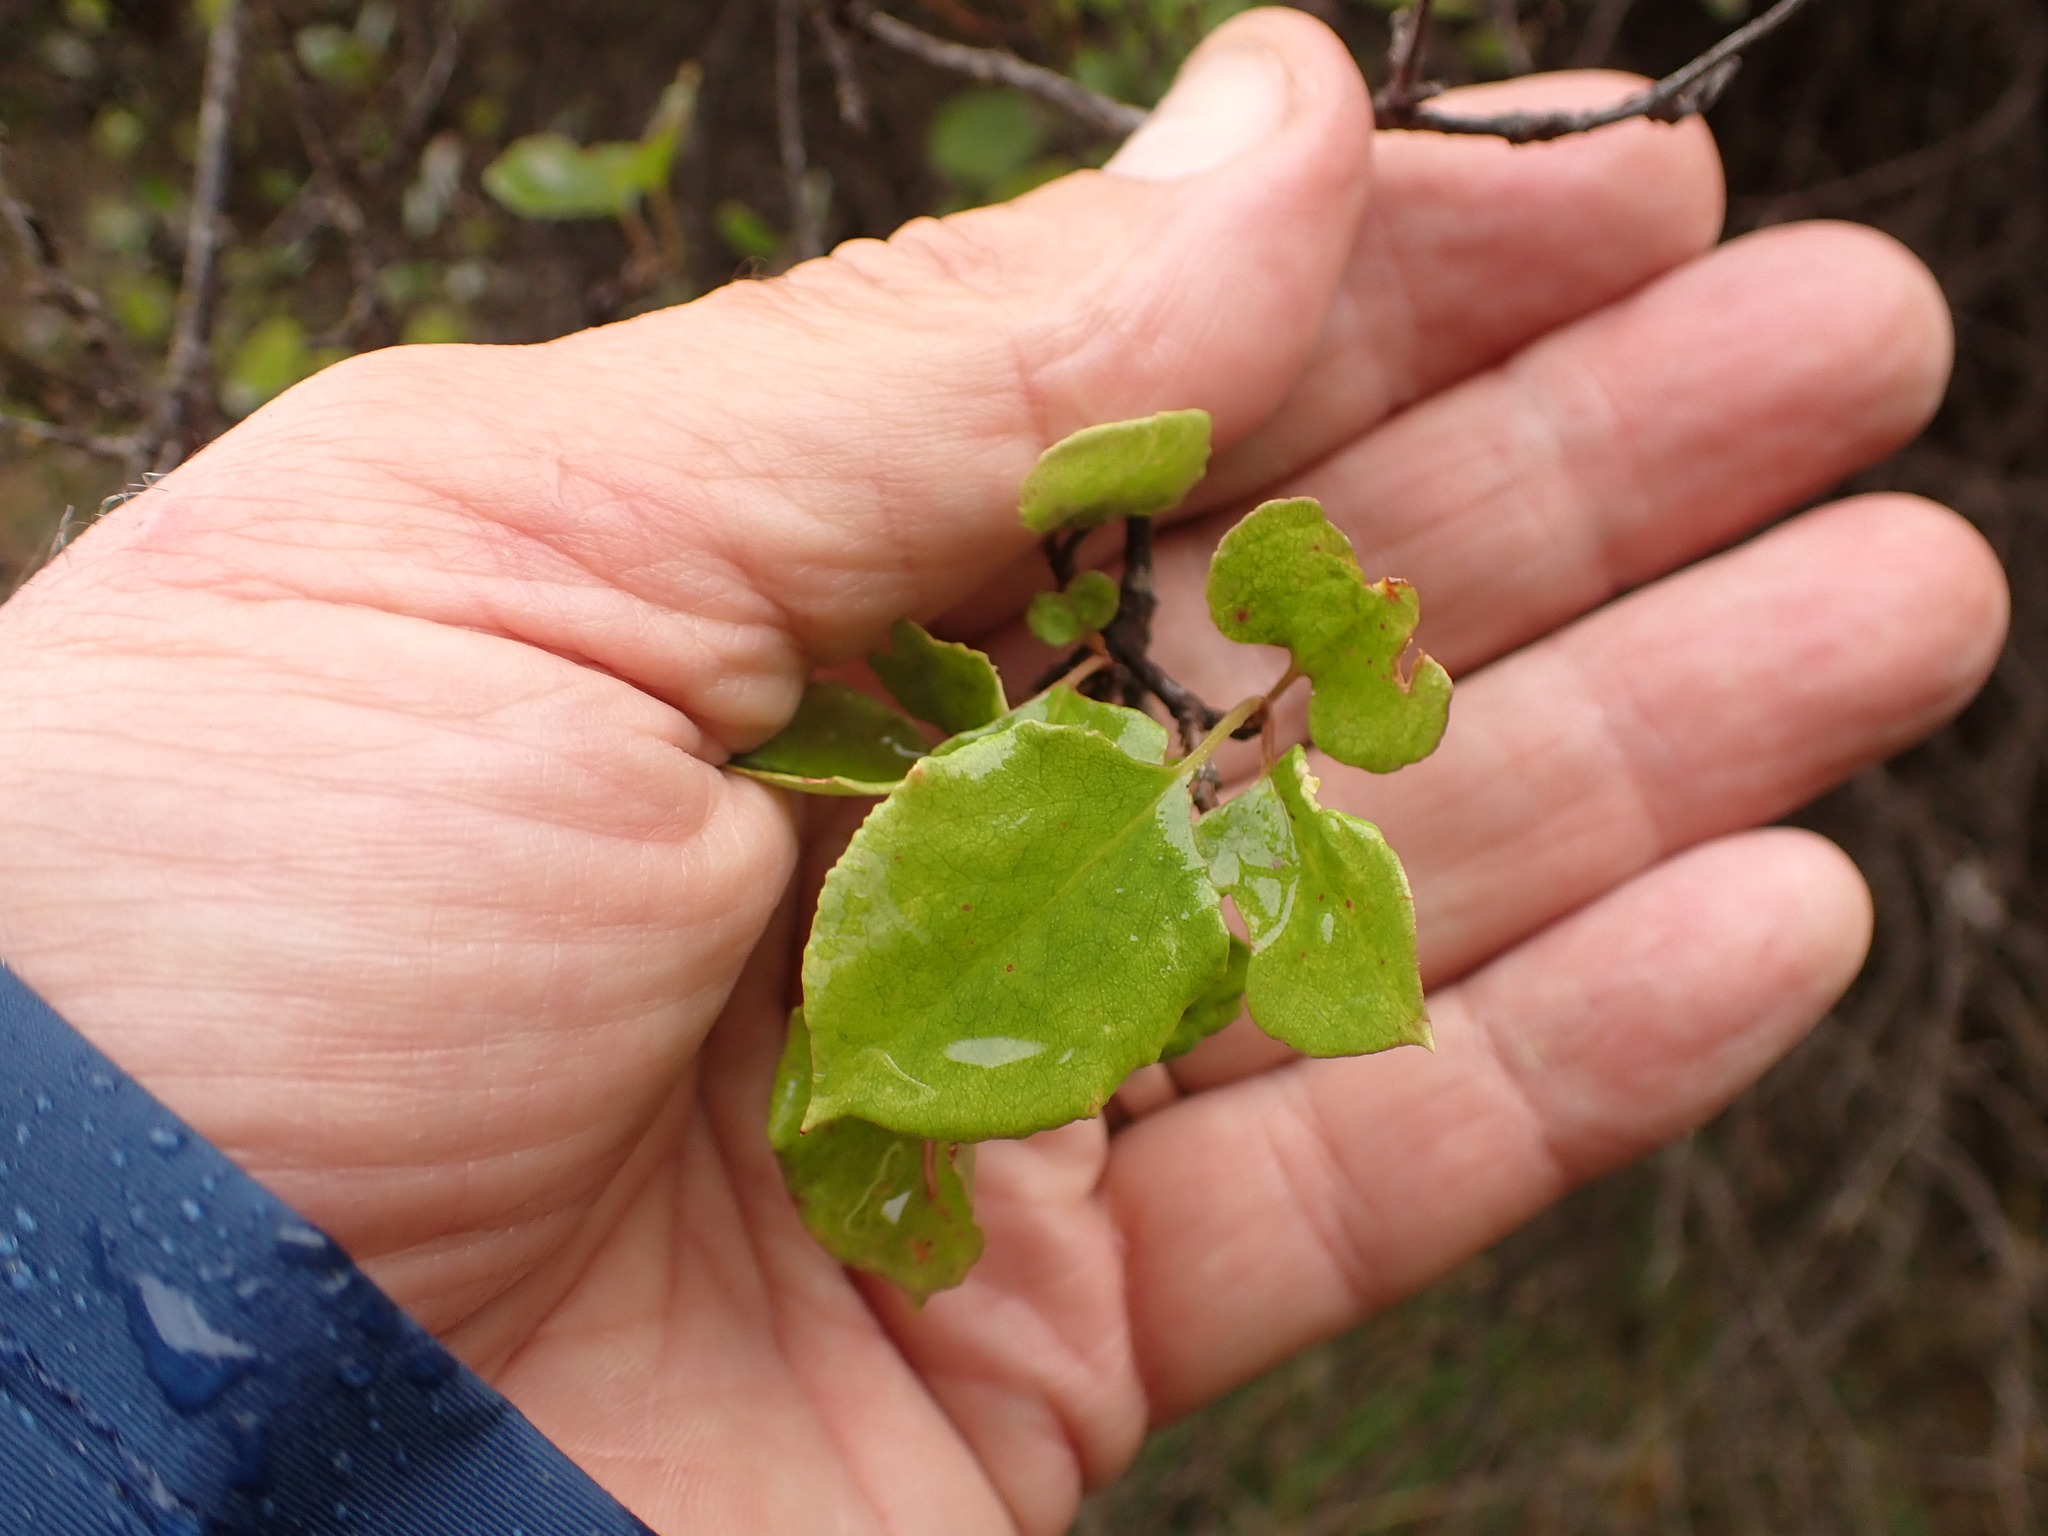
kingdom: Plantae
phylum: Tracheophyta
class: Magnoliopsida
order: Caryophyllales
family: Polygonaceae
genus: Muehlenbeckia
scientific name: Muehlenbeckia australis
